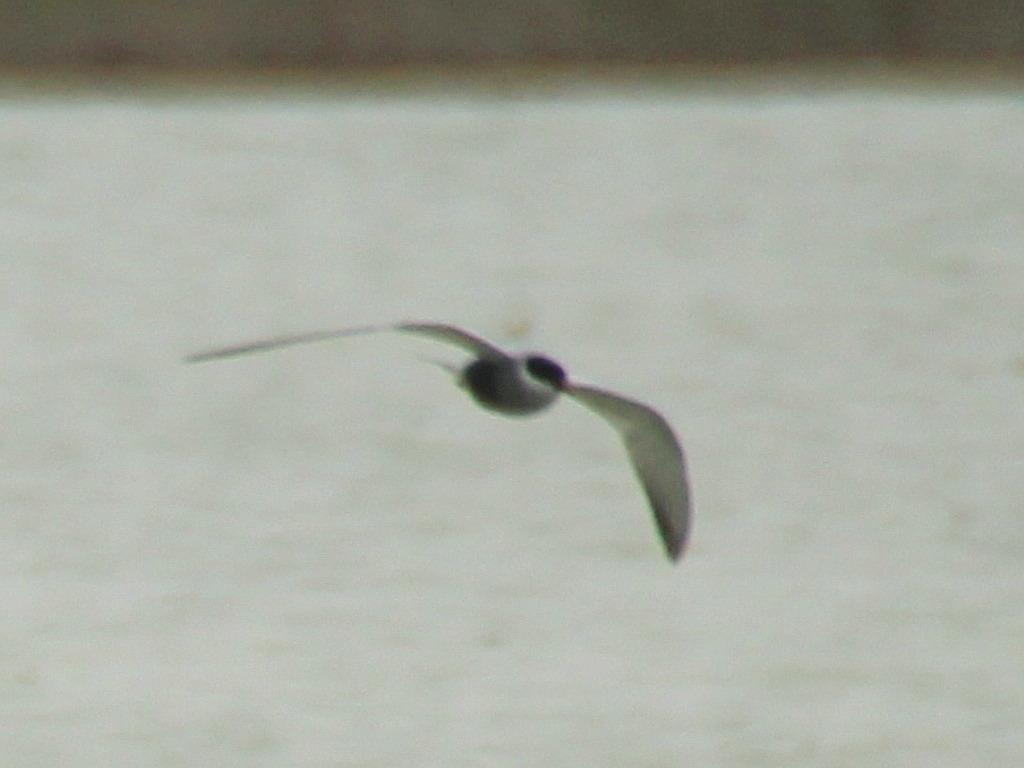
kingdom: Animalia
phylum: Chordata
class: Aves
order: Charadriiformes
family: Laridae
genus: Chlidonias
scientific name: Chlidonias hybrida
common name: Whiskered tern
